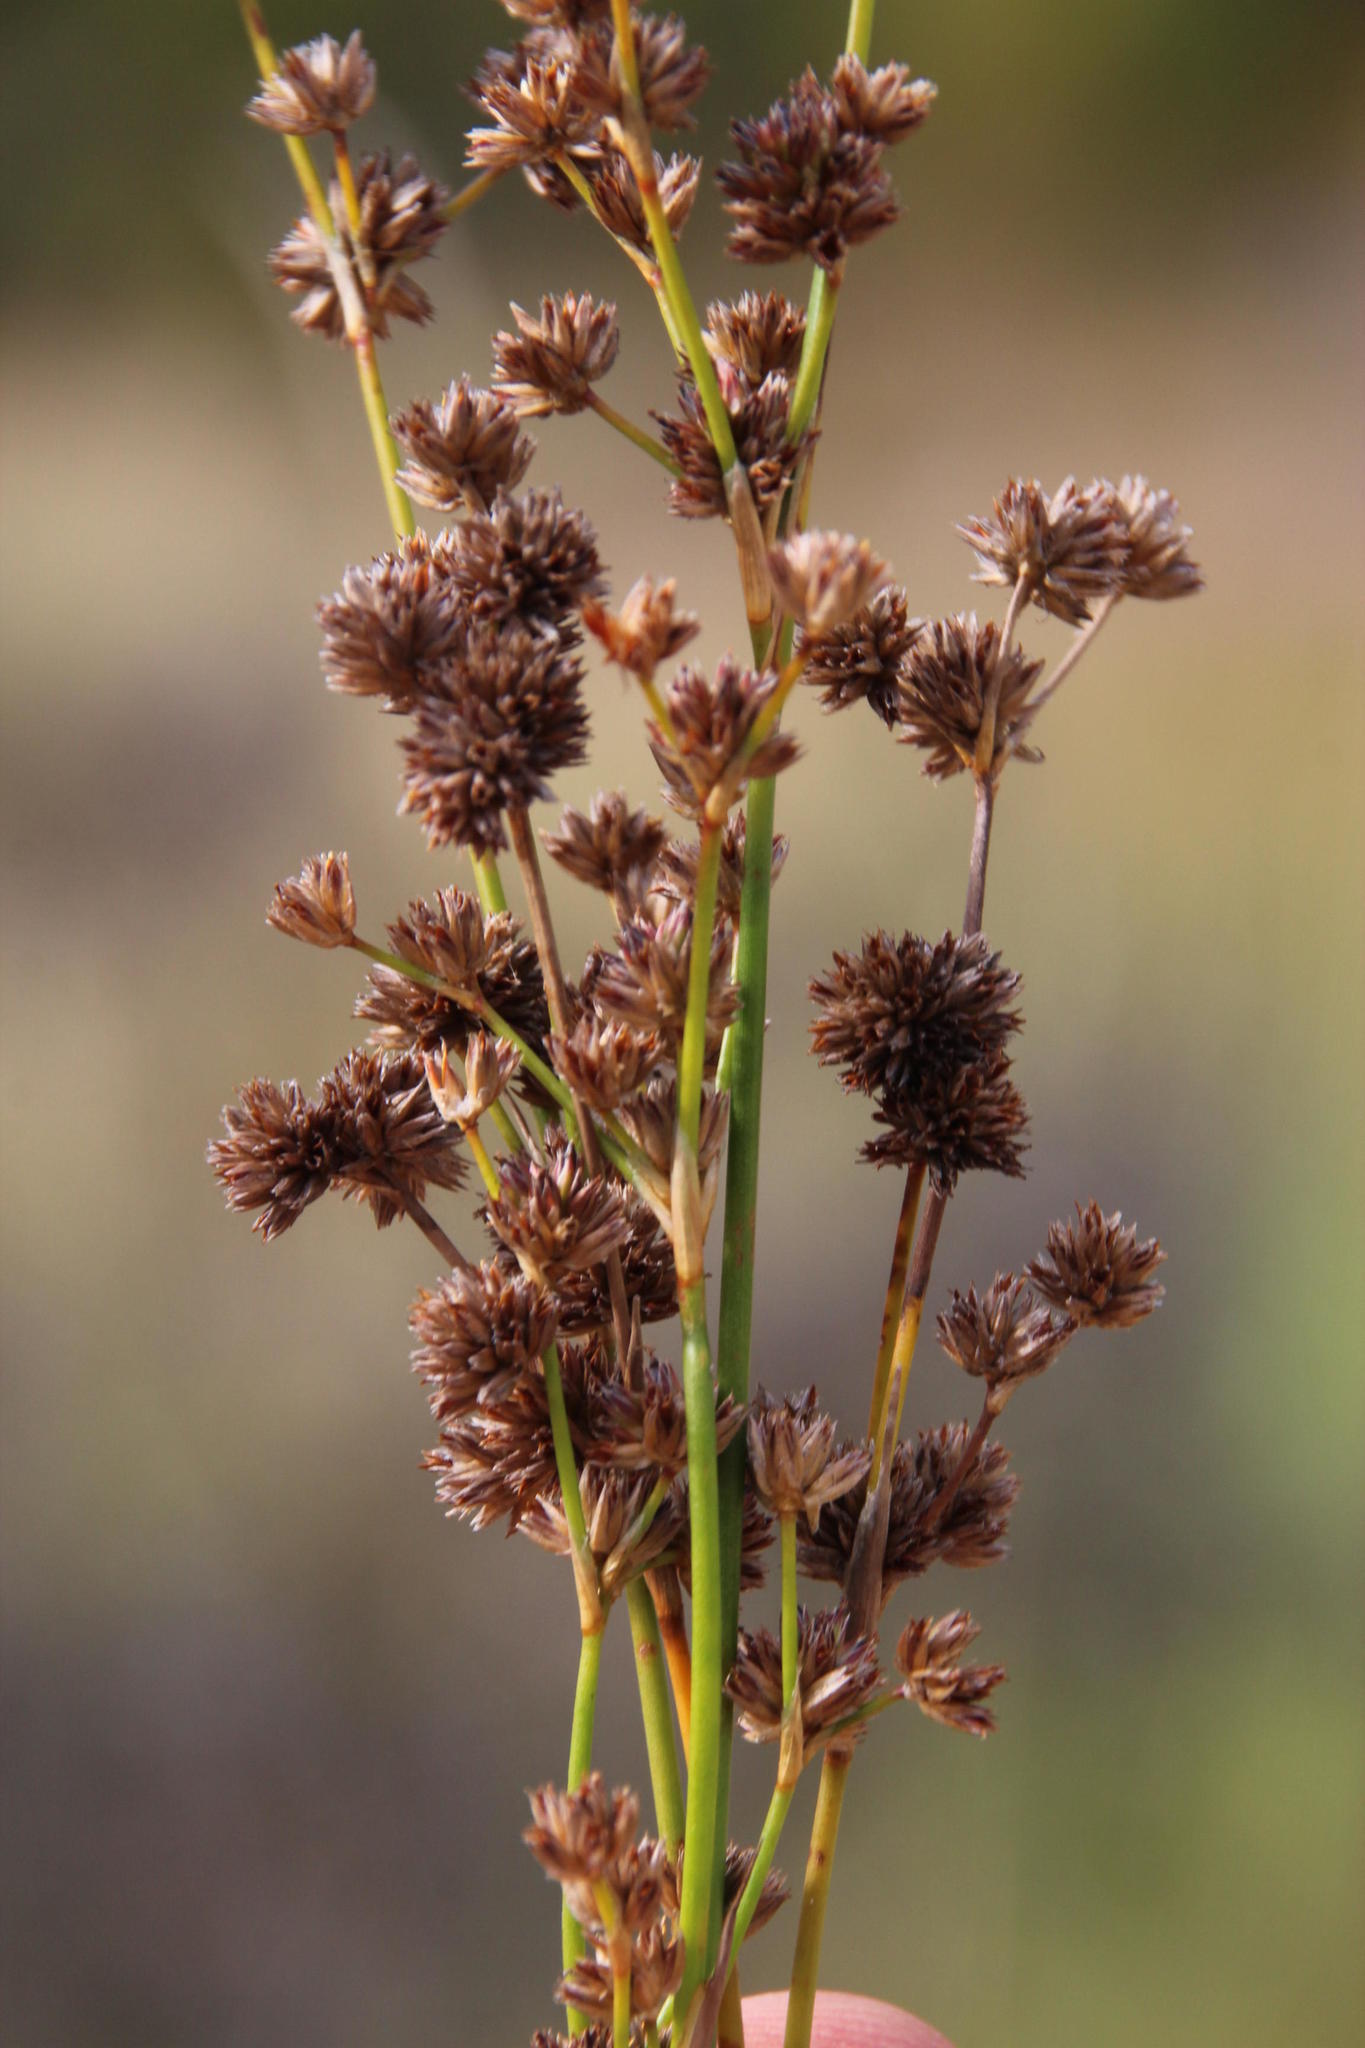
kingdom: Plantae
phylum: Tracheophyta
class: Liliopsida
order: Poales
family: Juncaceae
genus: Juncus
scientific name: Juncus oxycarpus
